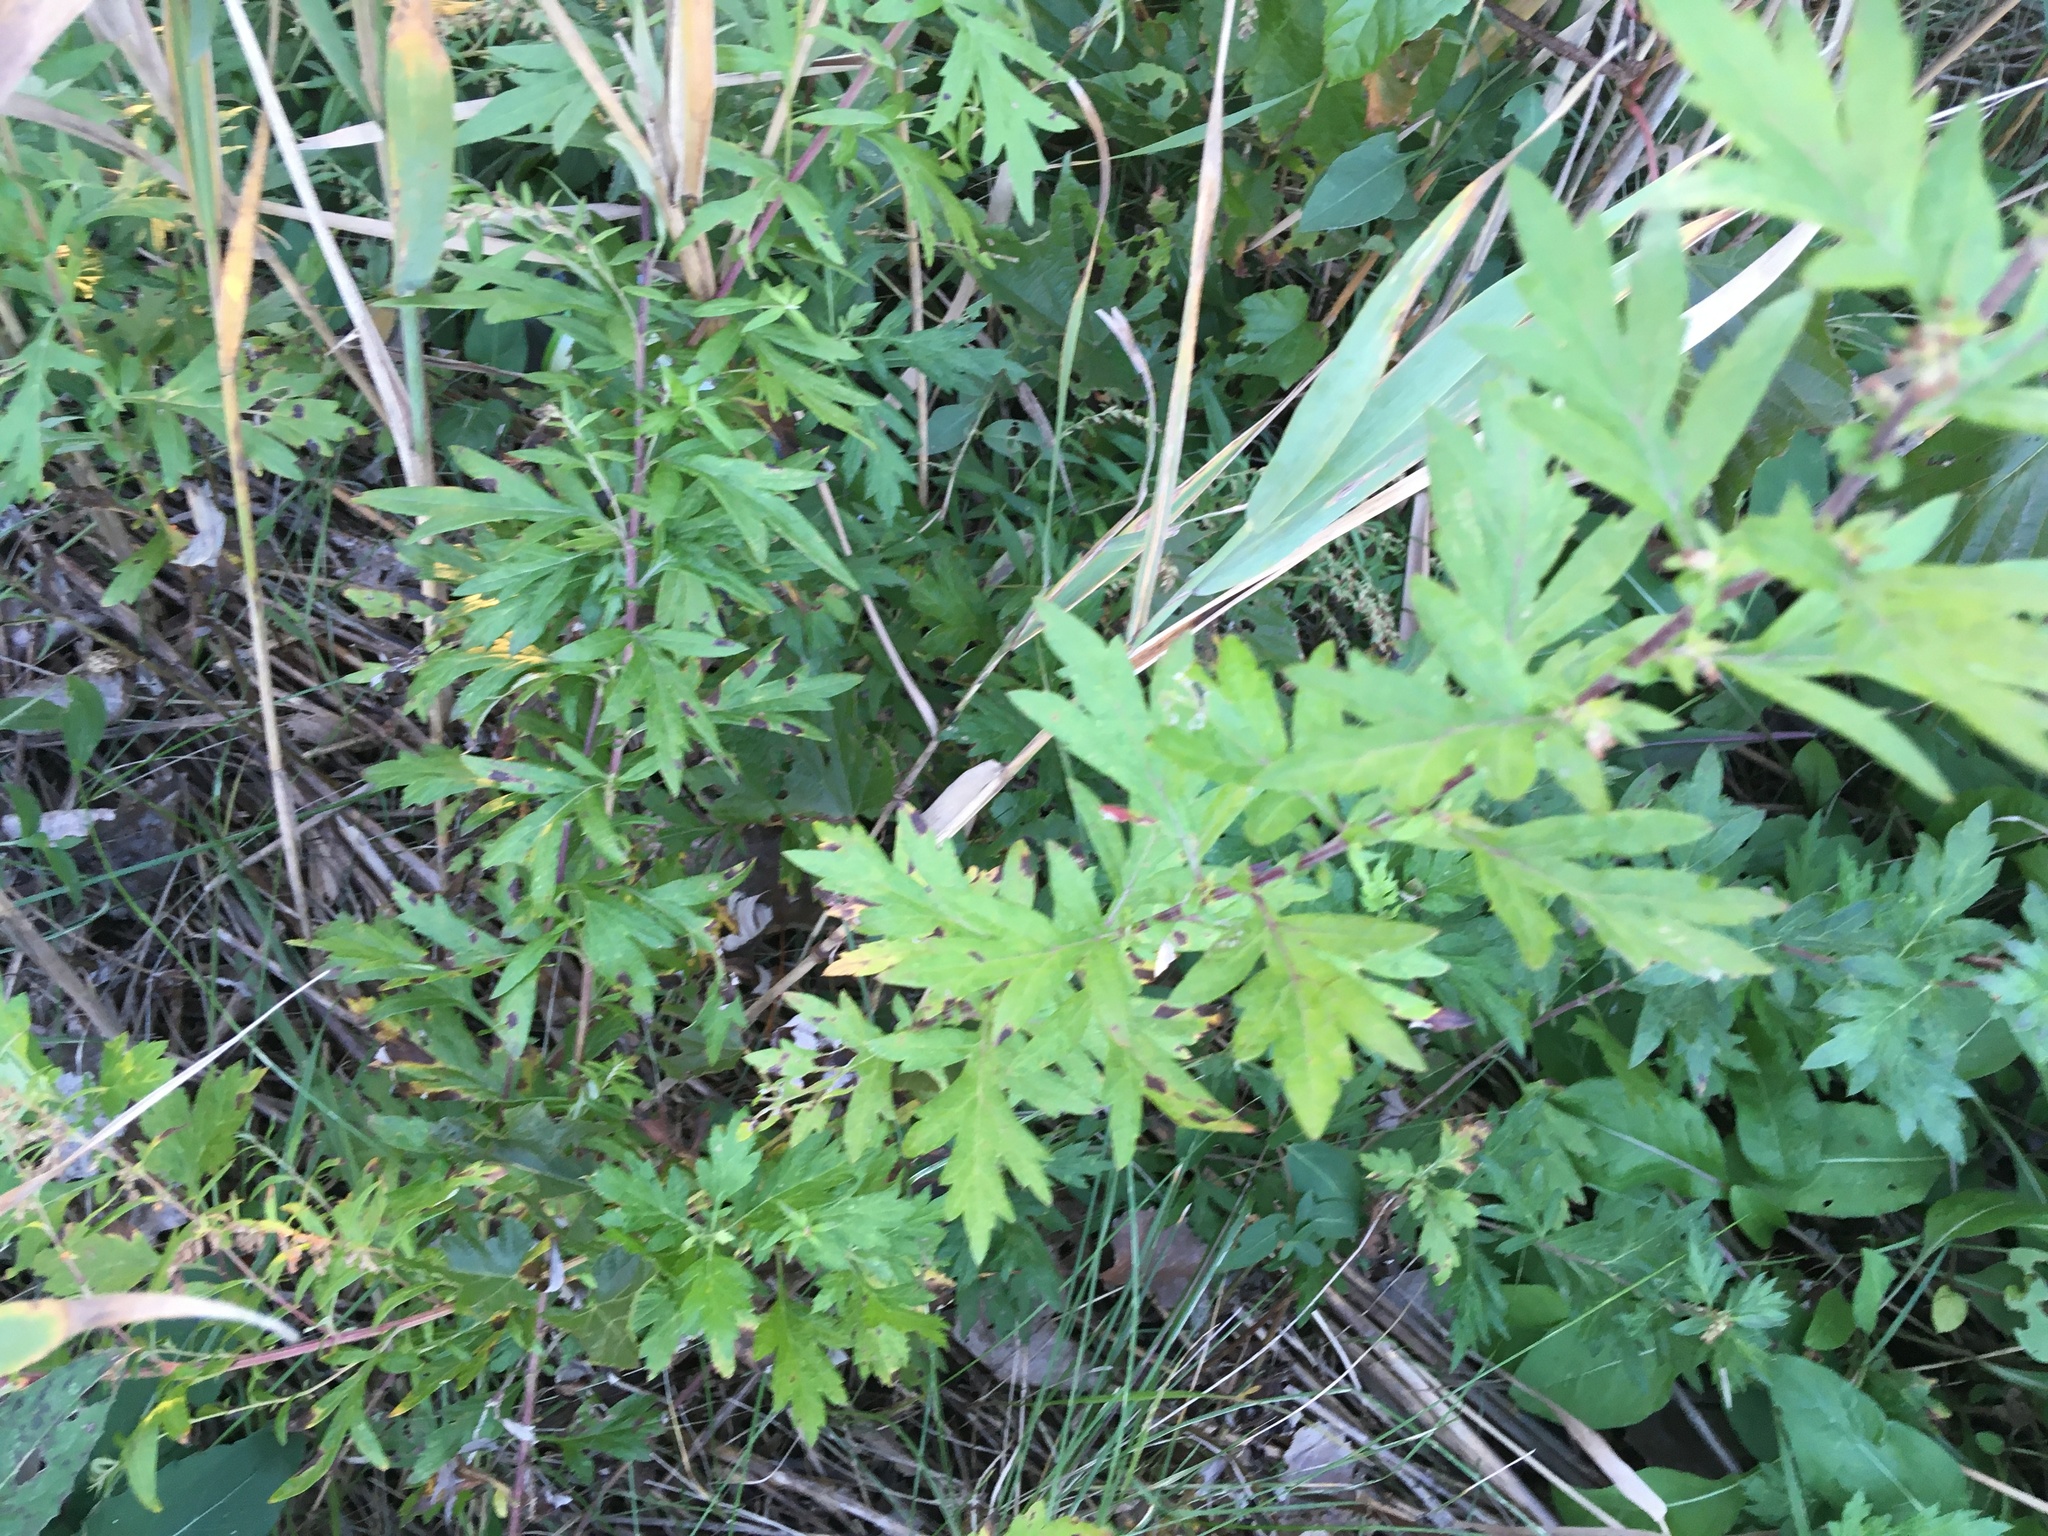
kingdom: Plantae
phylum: Tracheophyta
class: Magnoliopsida
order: Asterales
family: Asteraceae
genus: Artemisia
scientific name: Artemisia vulgaris
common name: Mugwort
